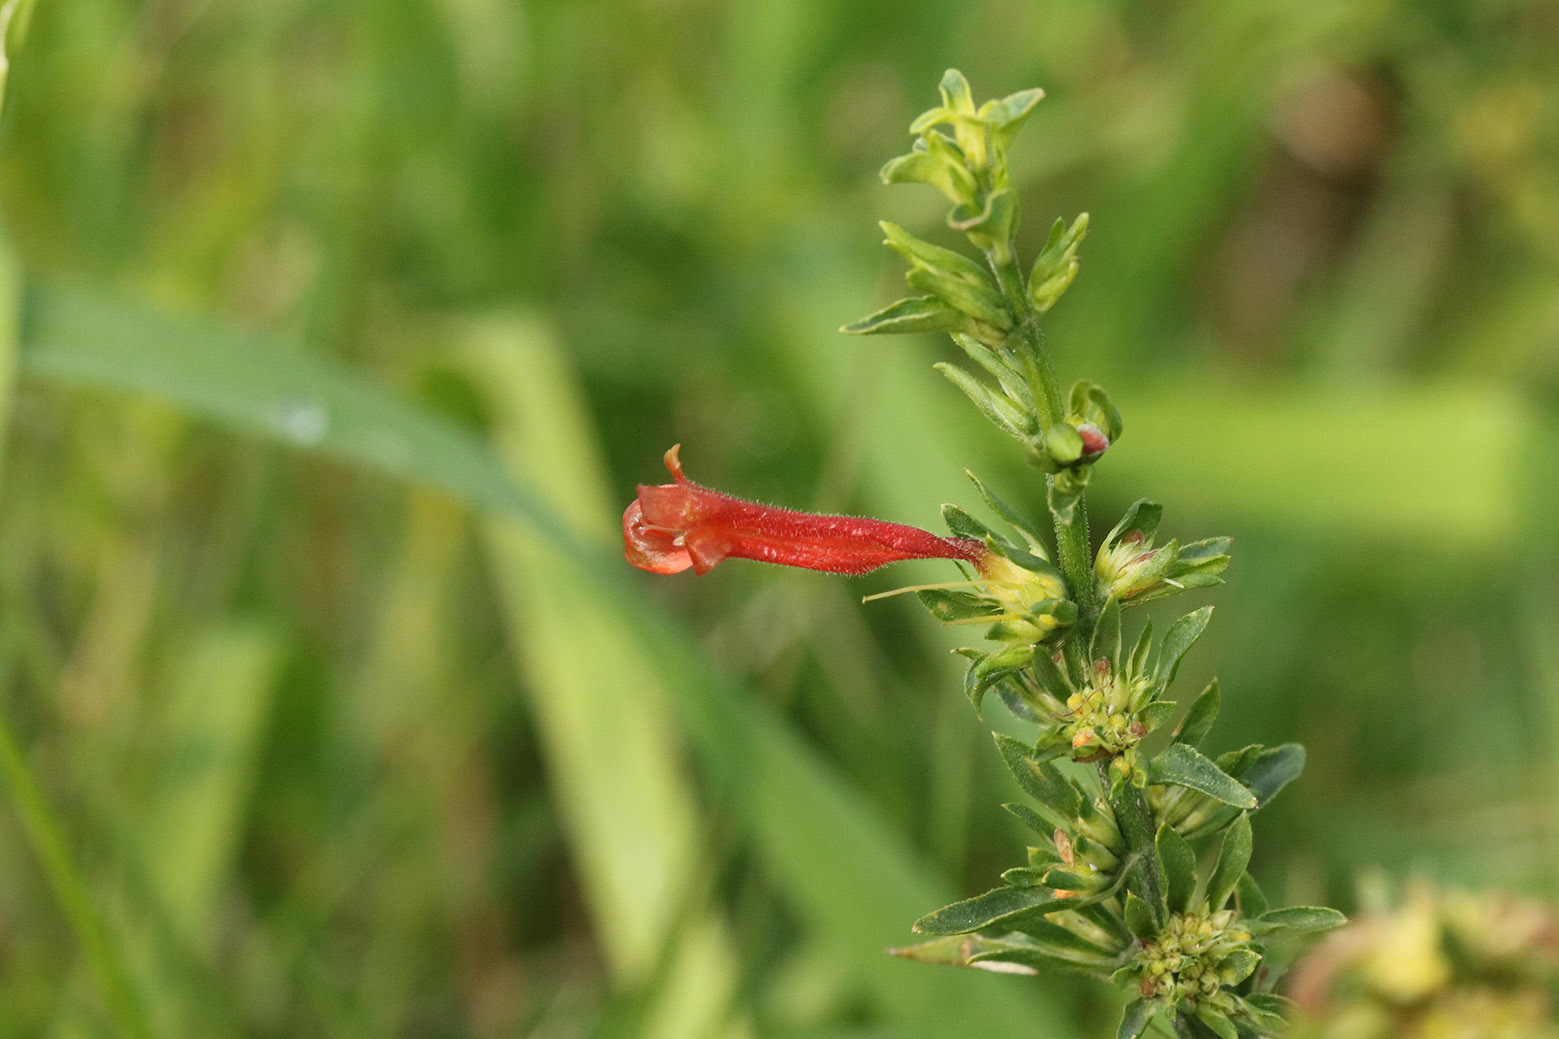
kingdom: Plantae
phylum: Tracheophyta
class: Magnoliopsida
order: Lamiales
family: Acanthaceae
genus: Dicliptera
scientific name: Dicliptera squarrosa
